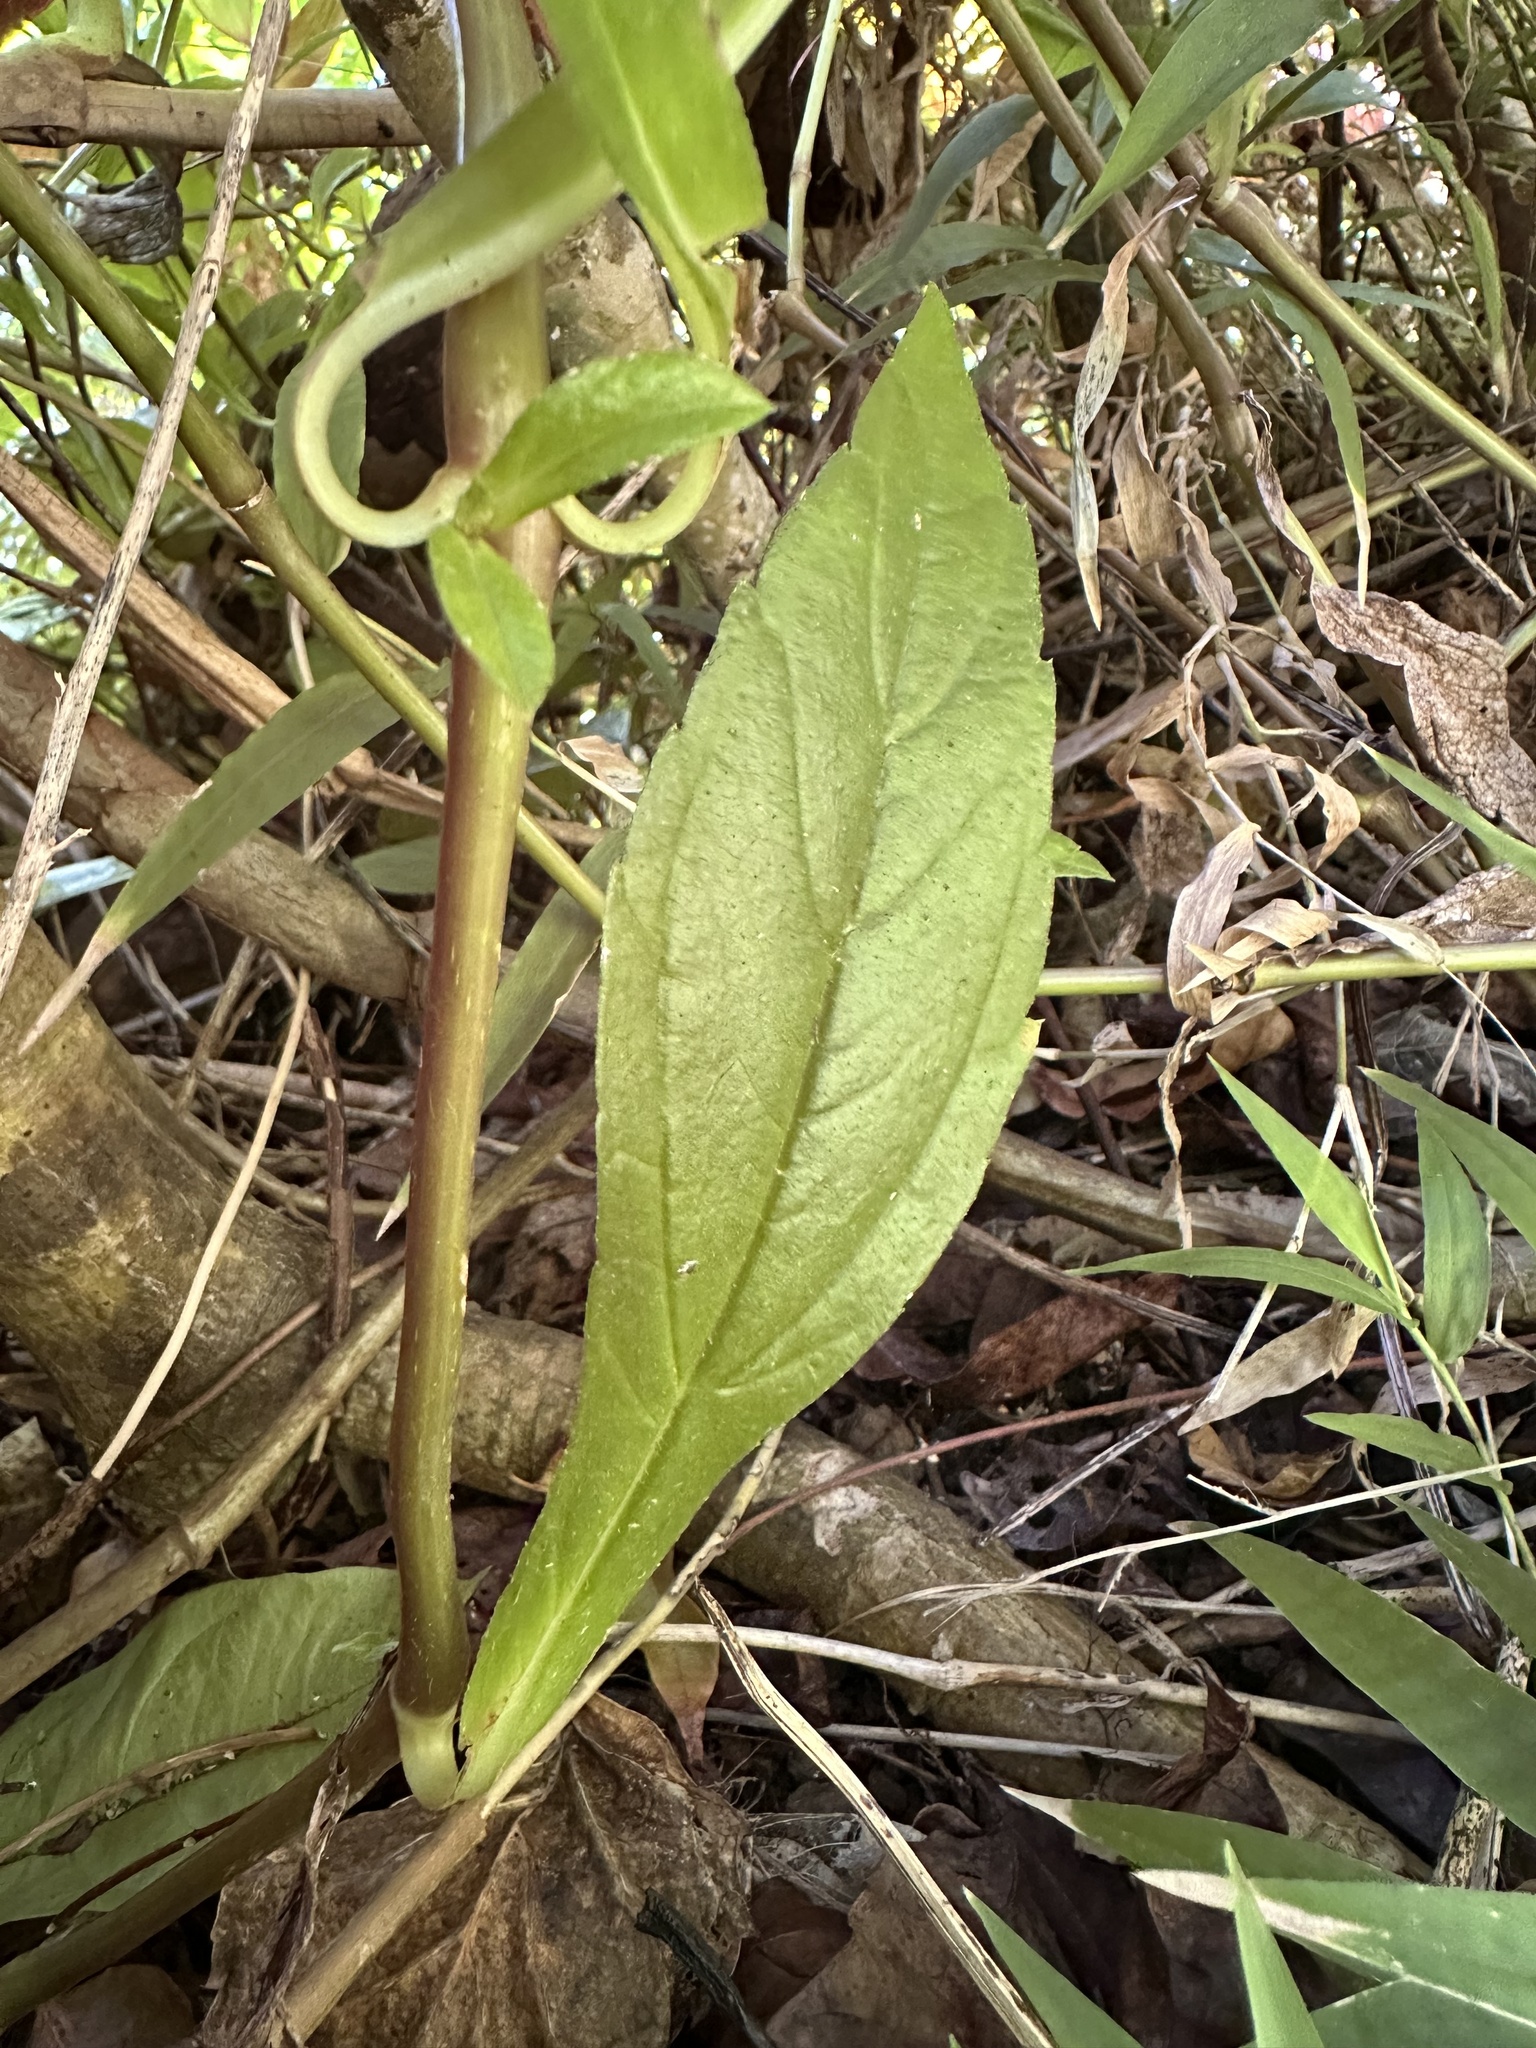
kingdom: Plantae
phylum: Tracheophyta
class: Magnoliopsida
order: Asterales
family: Asteraceae
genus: Sphagneticola
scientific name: Sphagneticola trilobata
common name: Bay biscayne creeping-oxeye
